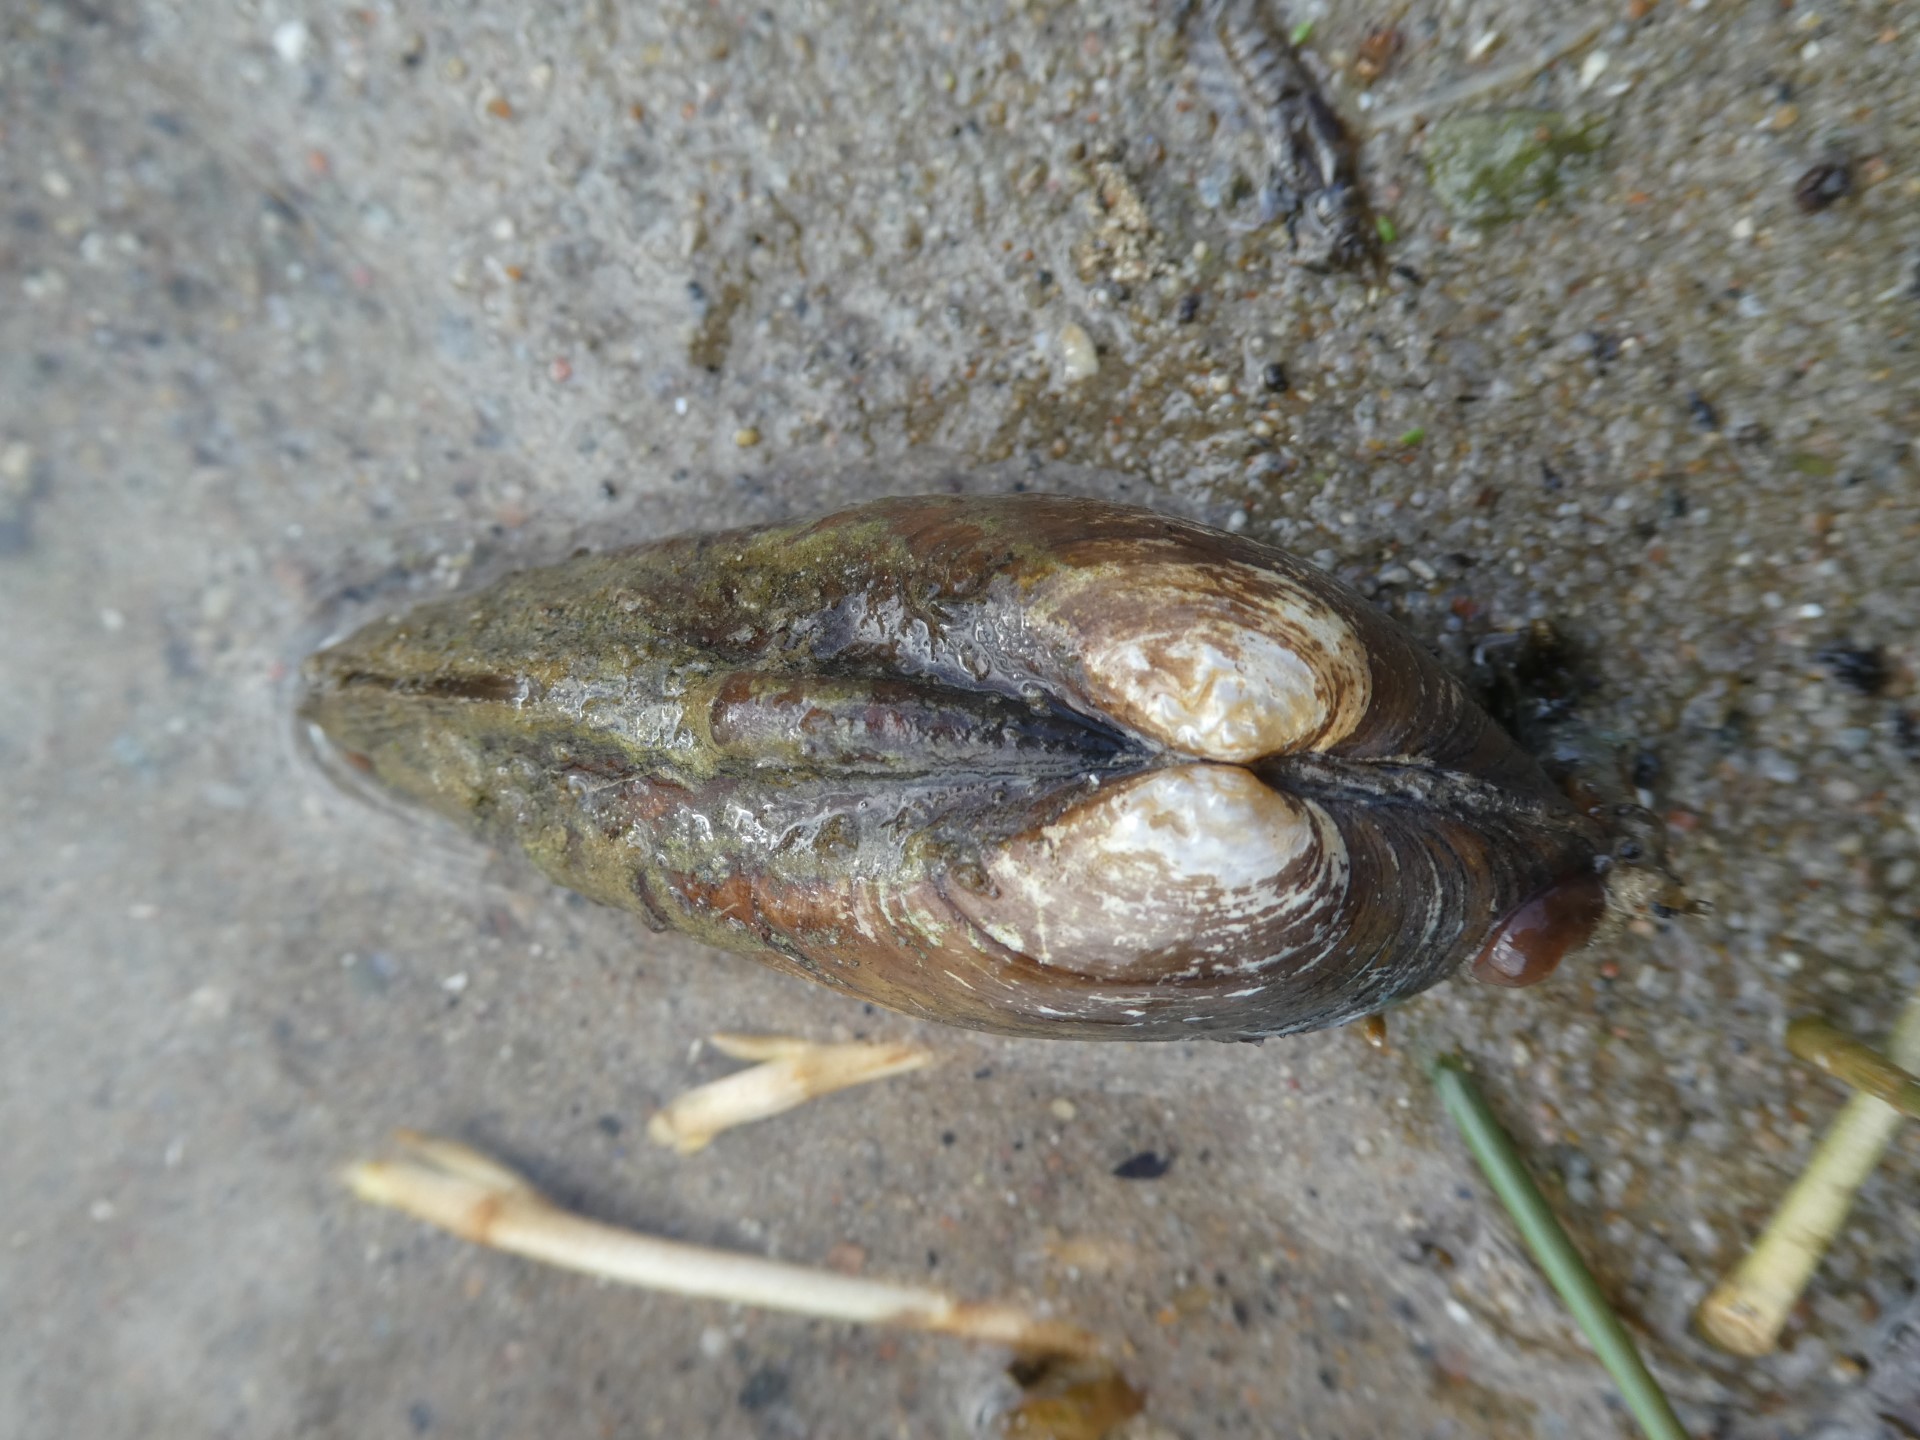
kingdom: Animalia
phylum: Mollusca
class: Bivalvia
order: Unionida
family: Unionidae
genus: Unio
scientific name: Unio tumidus
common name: Swollen river mussel
